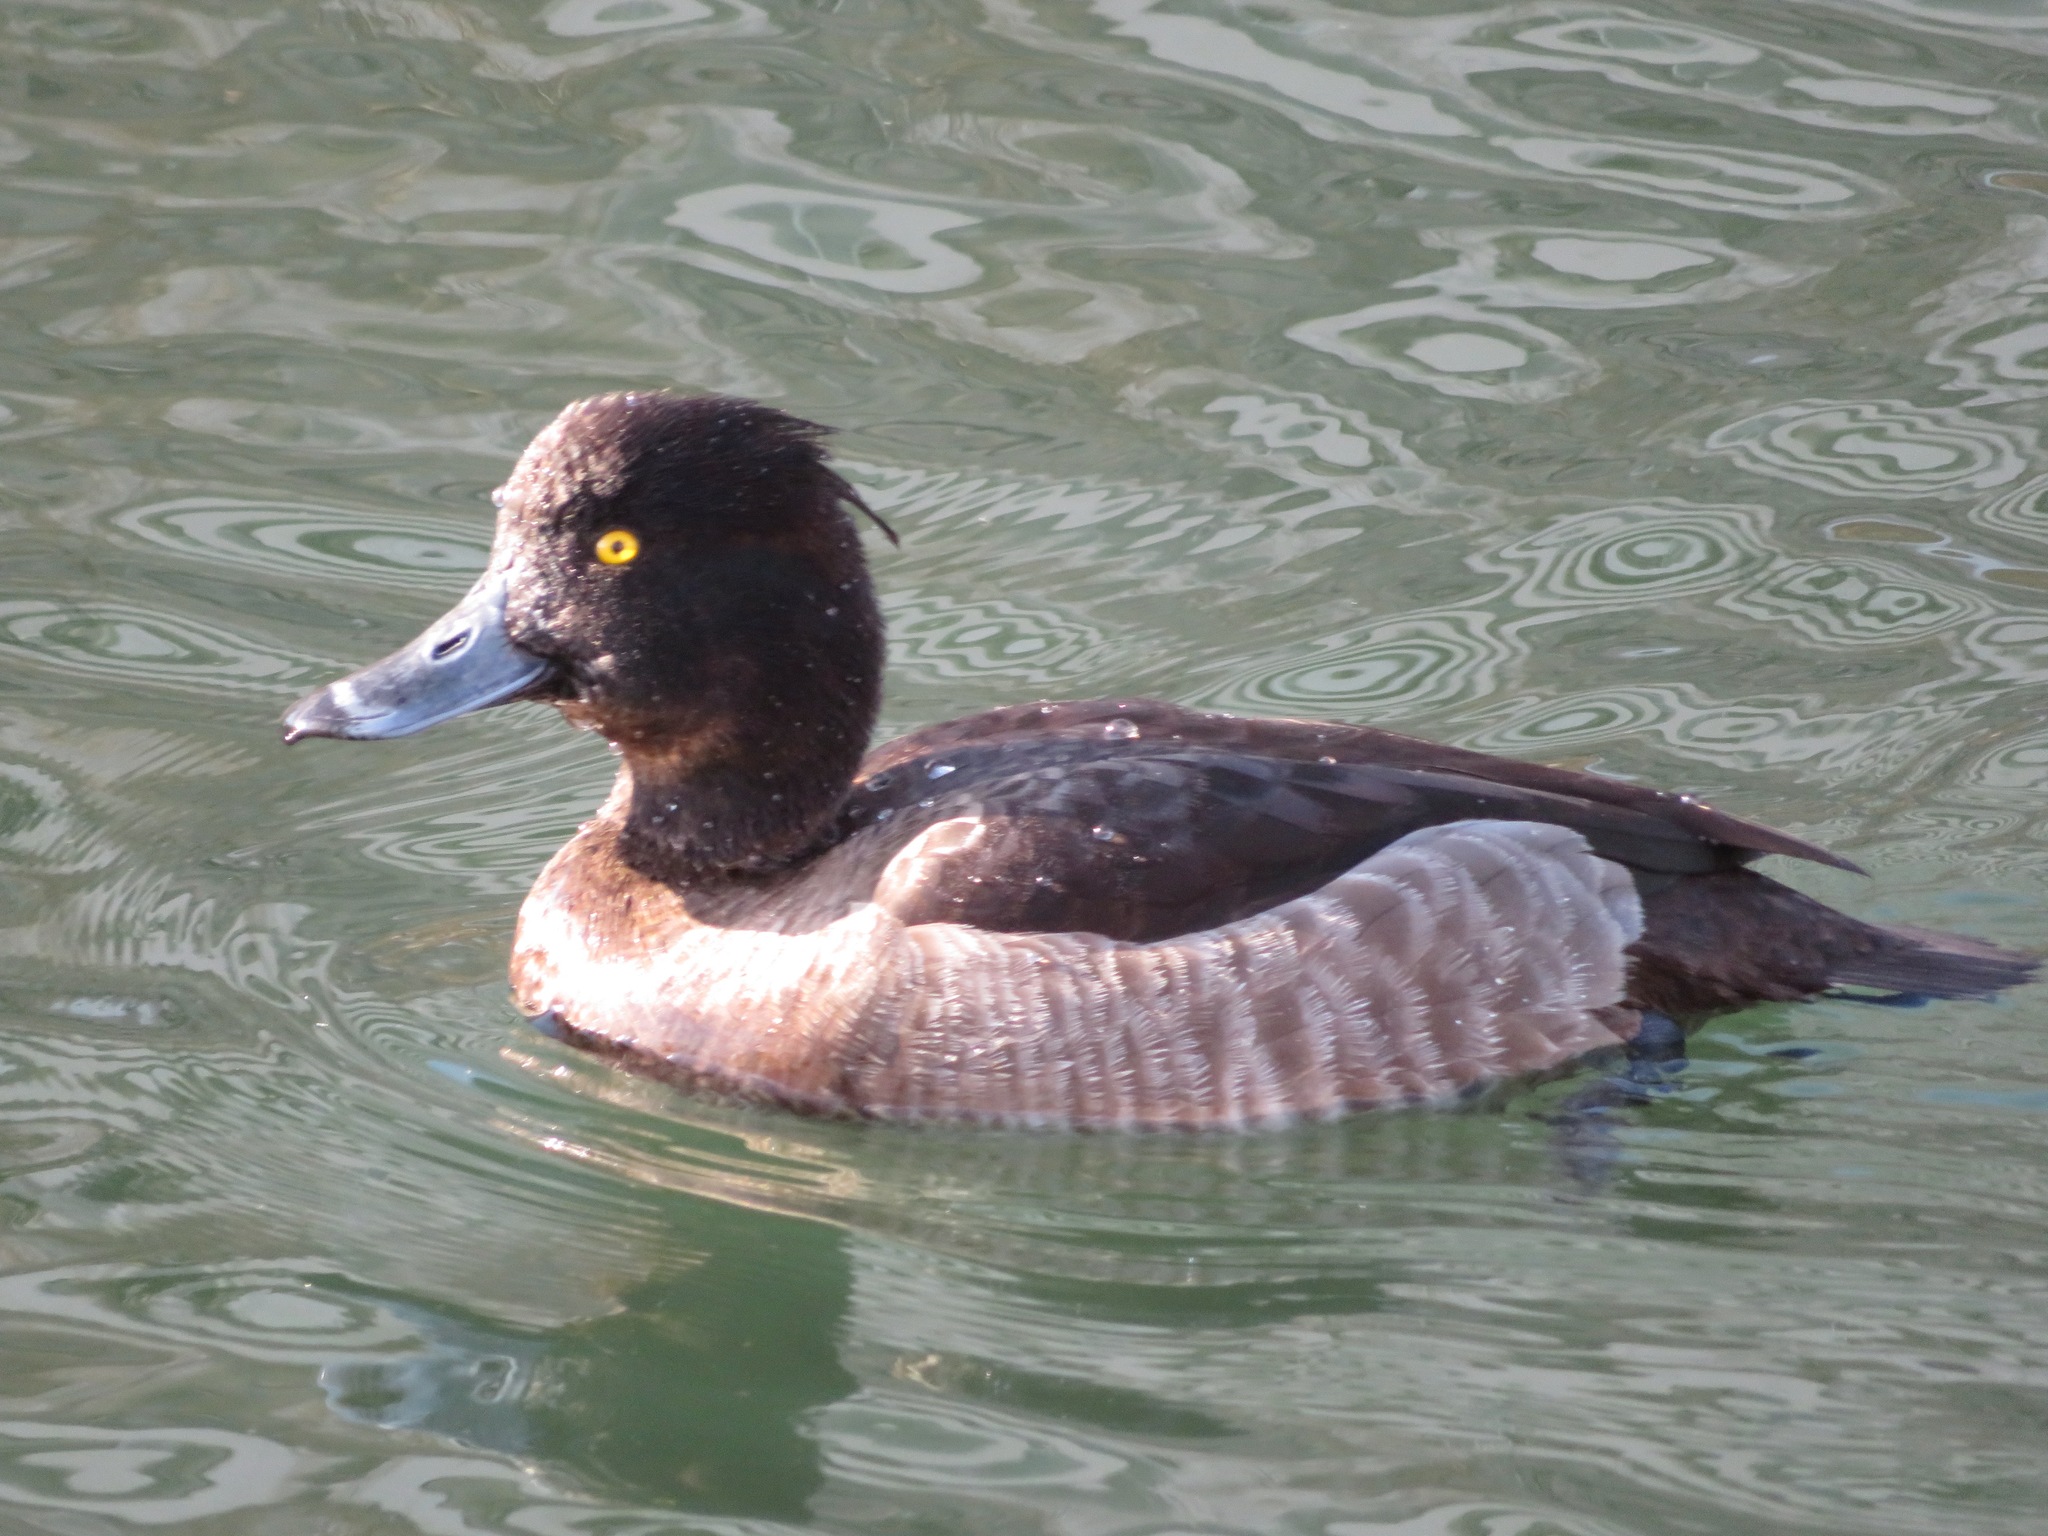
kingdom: Animalia
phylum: Chordata
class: Aves
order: Anseriformes
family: Anatidae
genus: Aythya
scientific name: Aythya fuligula
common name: Tufted duck
